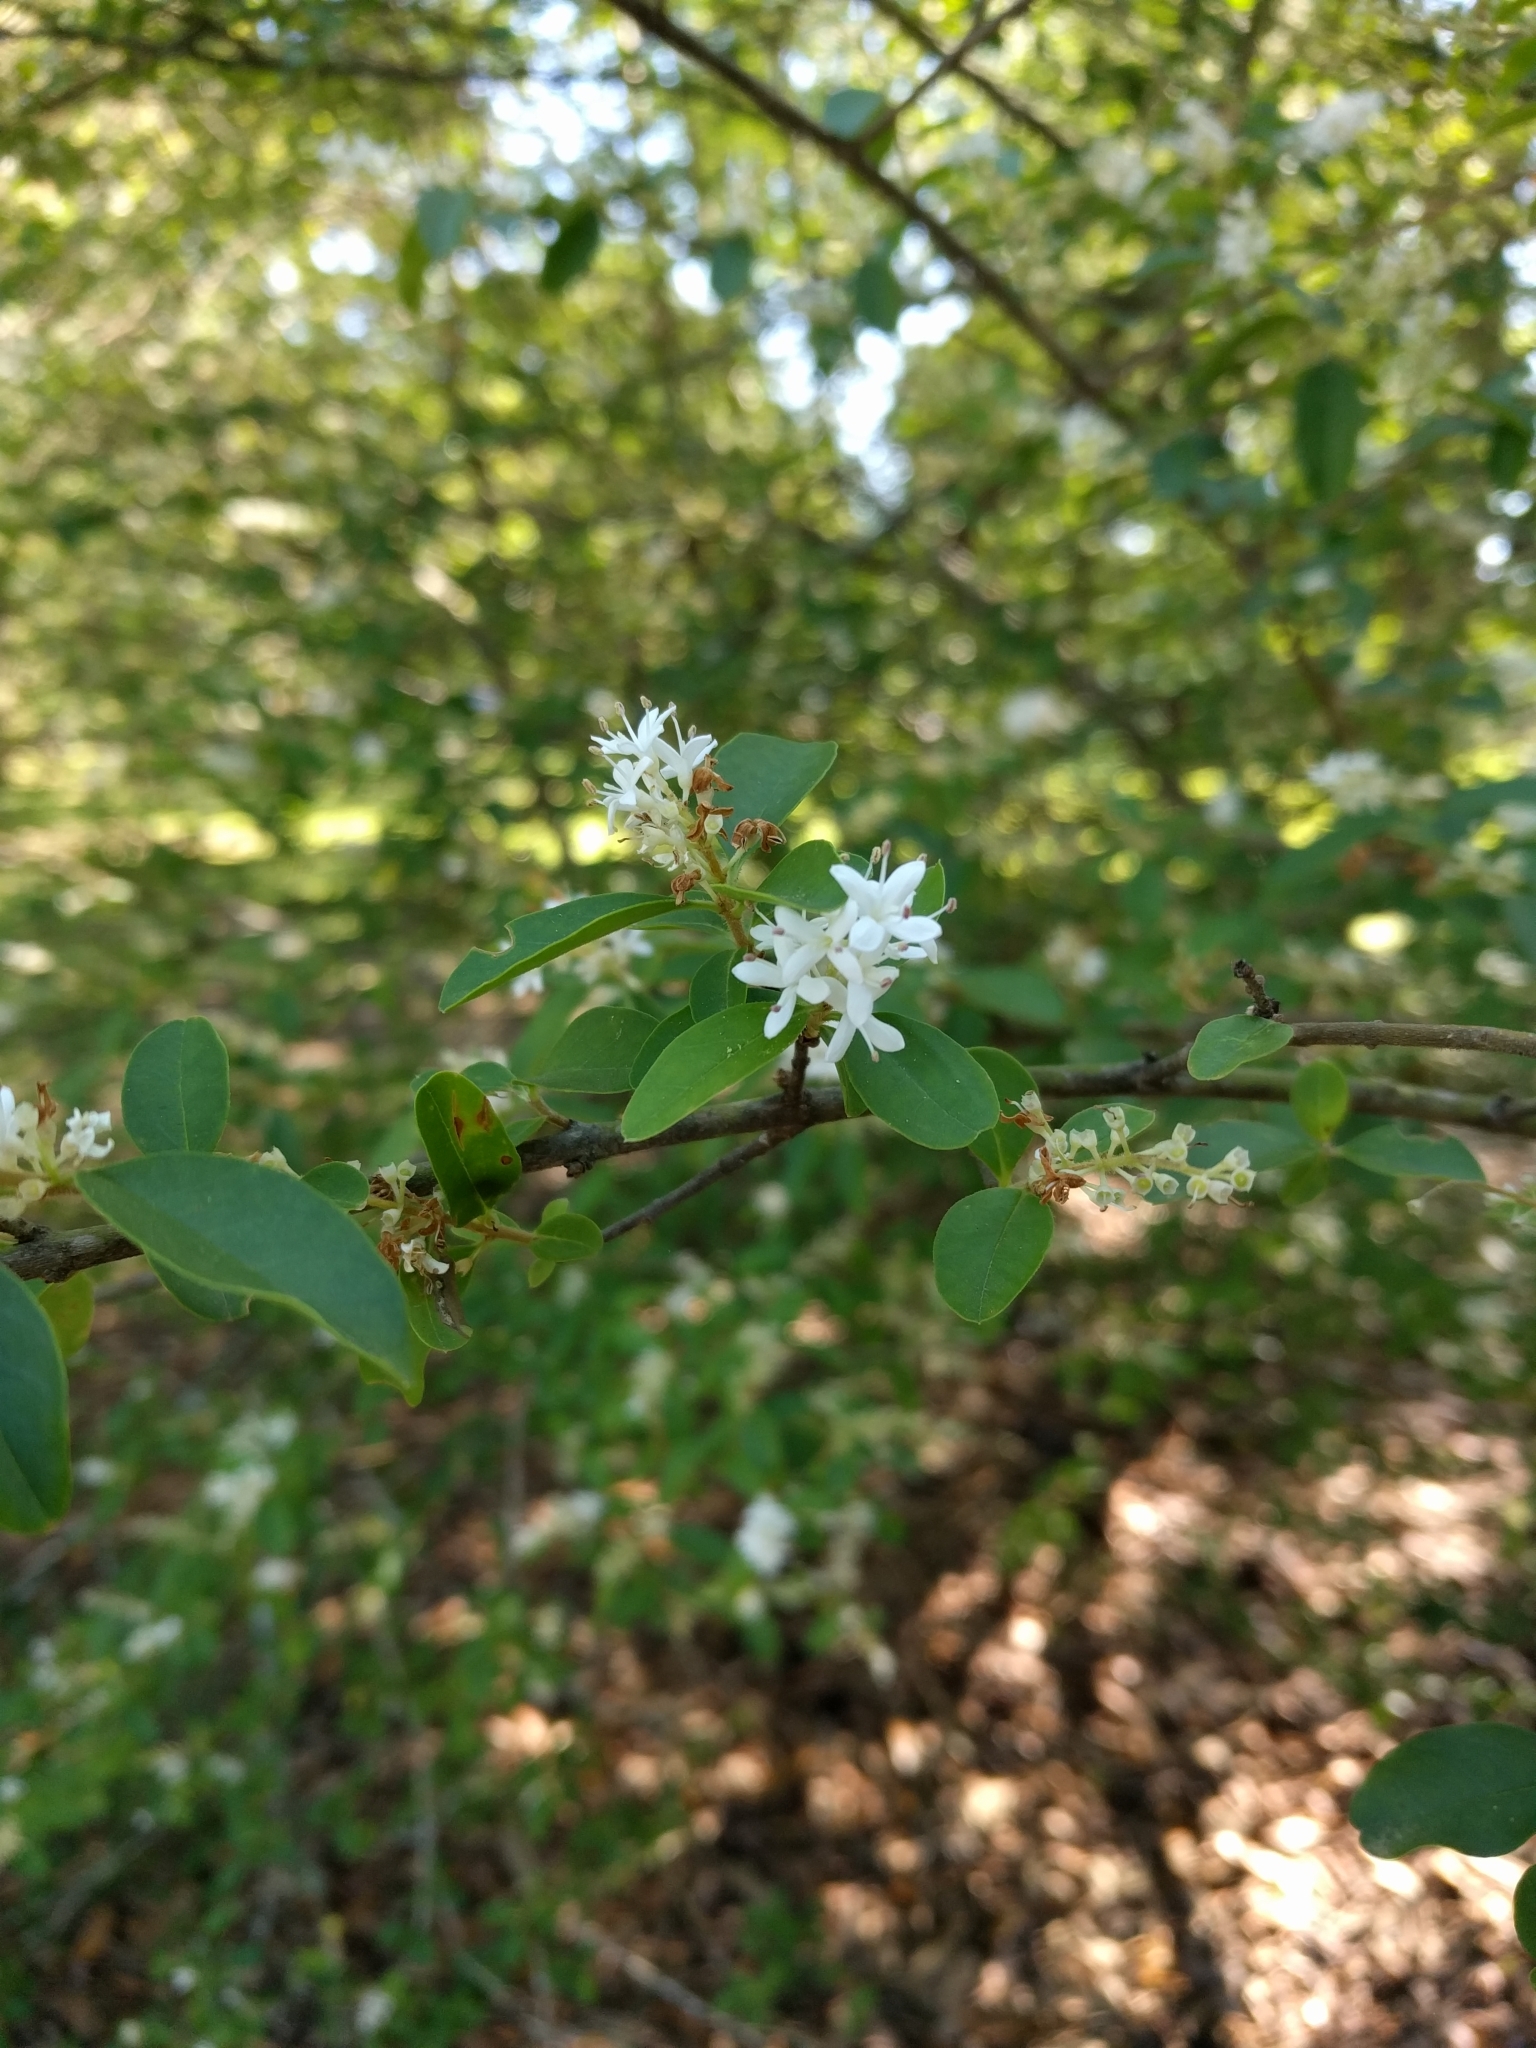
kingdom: Plantae
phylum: Tracheophyta
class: Magnoliopsida
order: Lamiales
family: Oleaceae
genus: Ligustrum
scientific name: Ligustrum sinense
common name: Chinese privet
